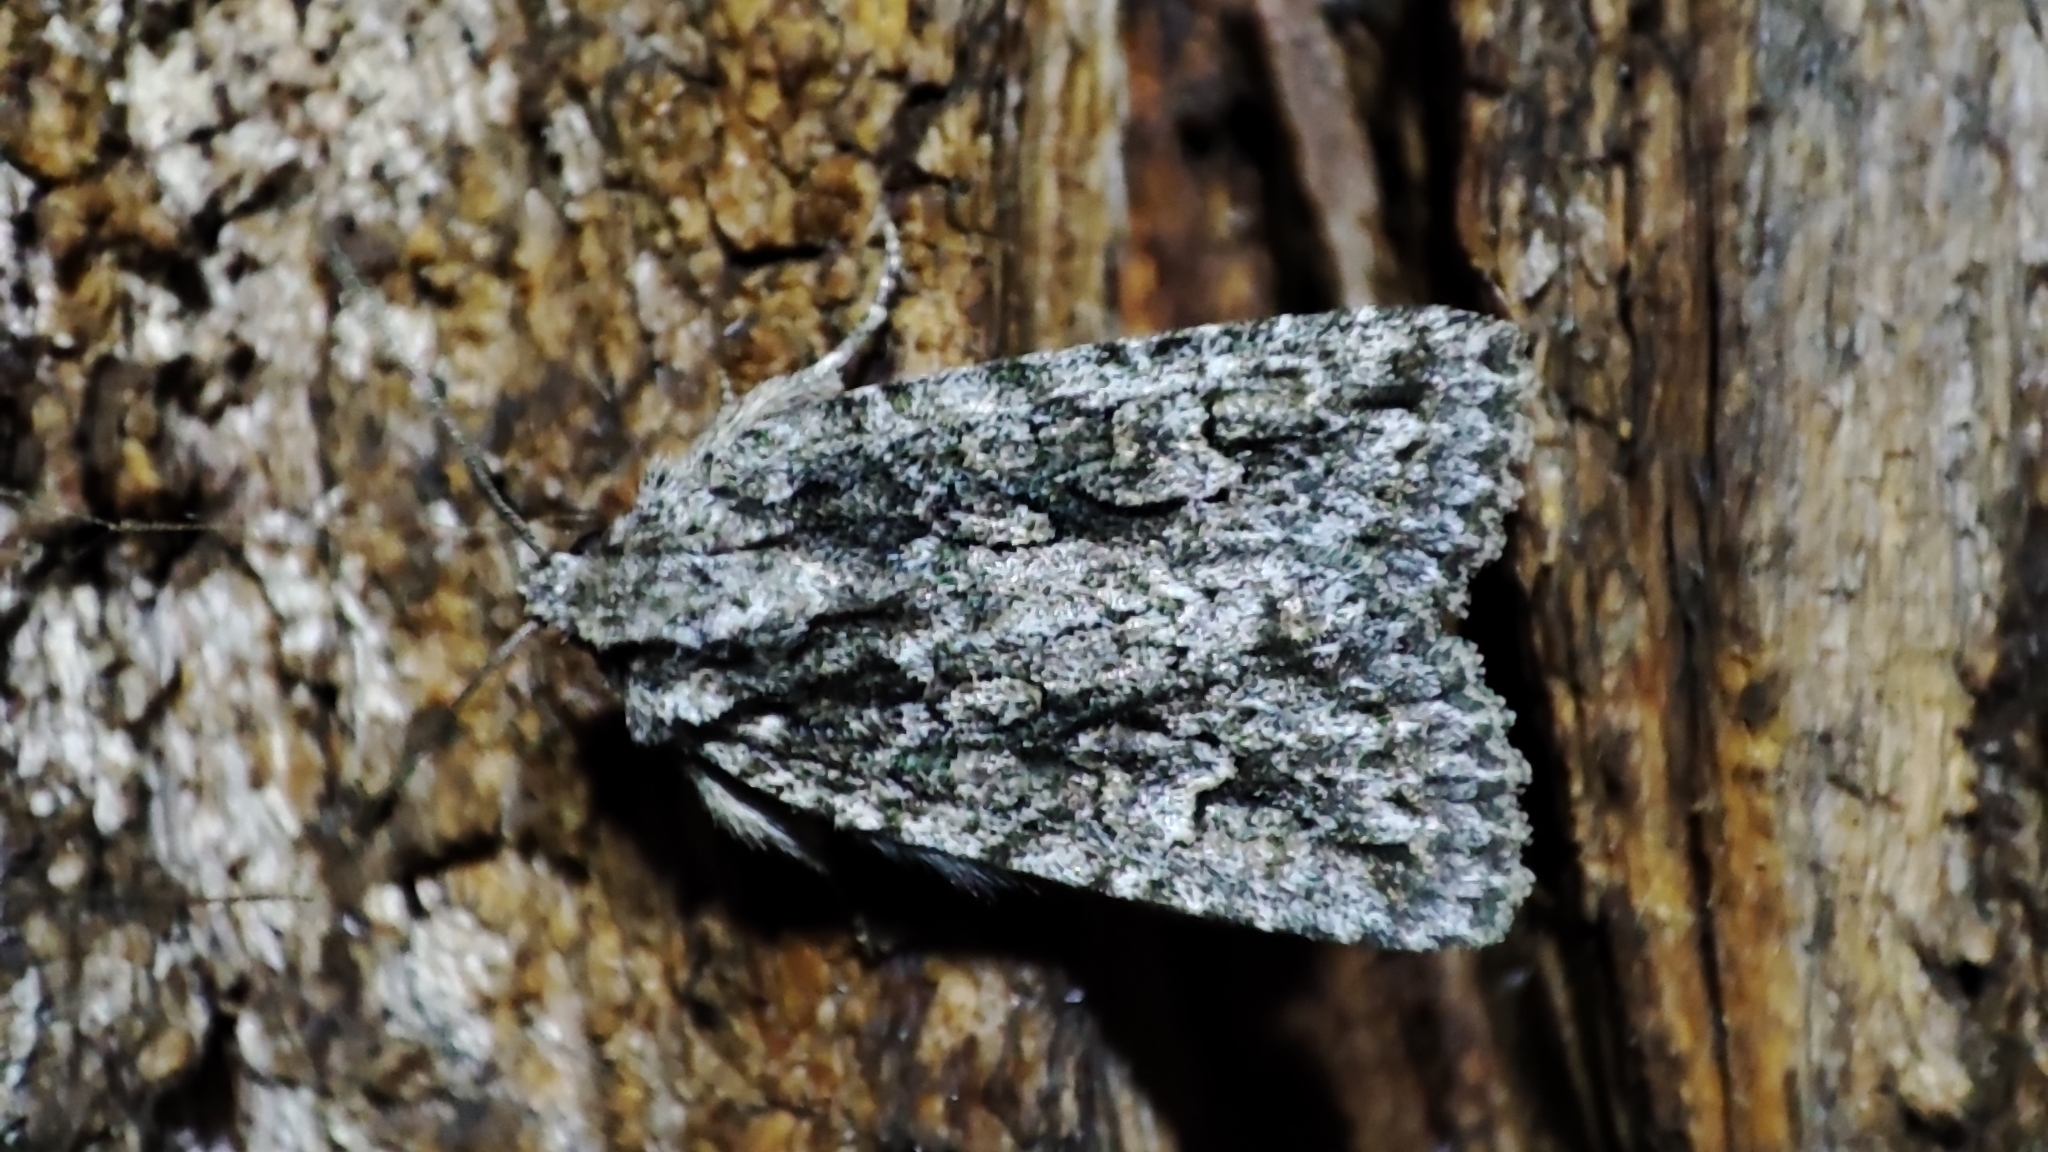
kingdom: Animalia
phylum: Arthropoda
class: Insecta
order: Lepidoptera
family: Noctuidae
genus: Phidrimana
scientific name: Phidrimana amurensis
